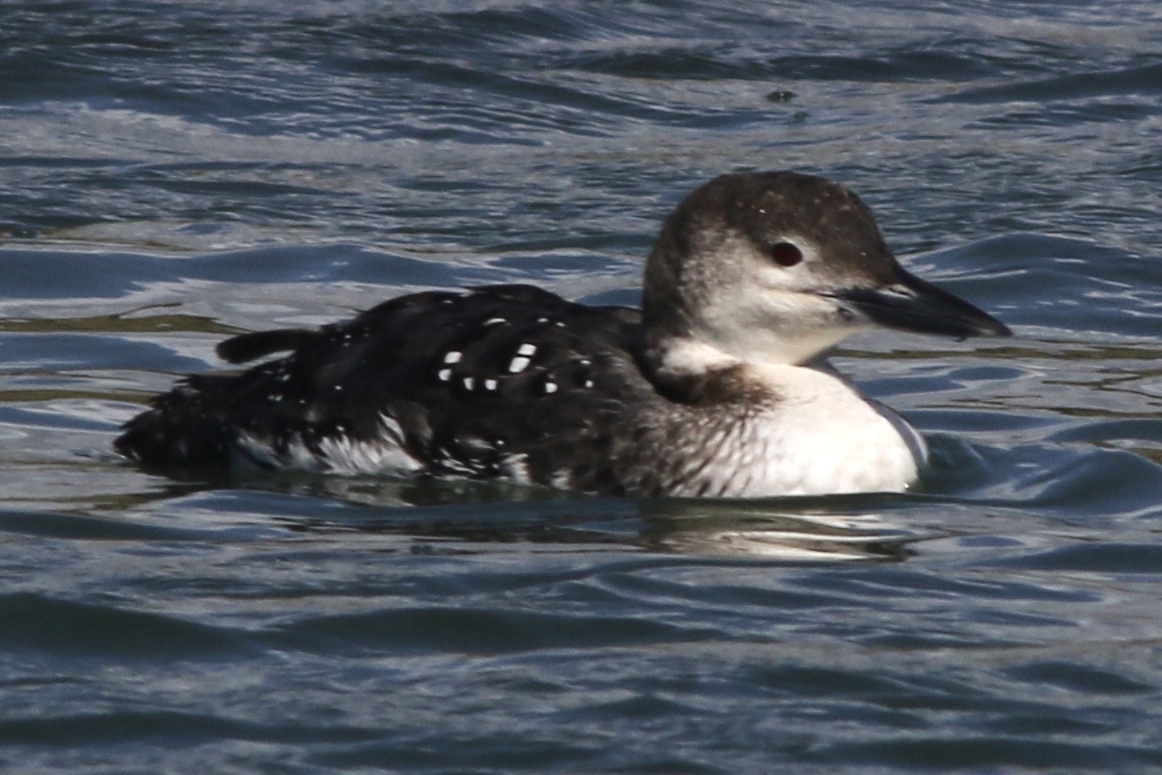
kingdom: Animalia
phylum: Chordata
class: Aves
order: Gaviiformes
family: Gaviidae
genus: Gavia
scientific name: Gavia immer
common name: Common loon
